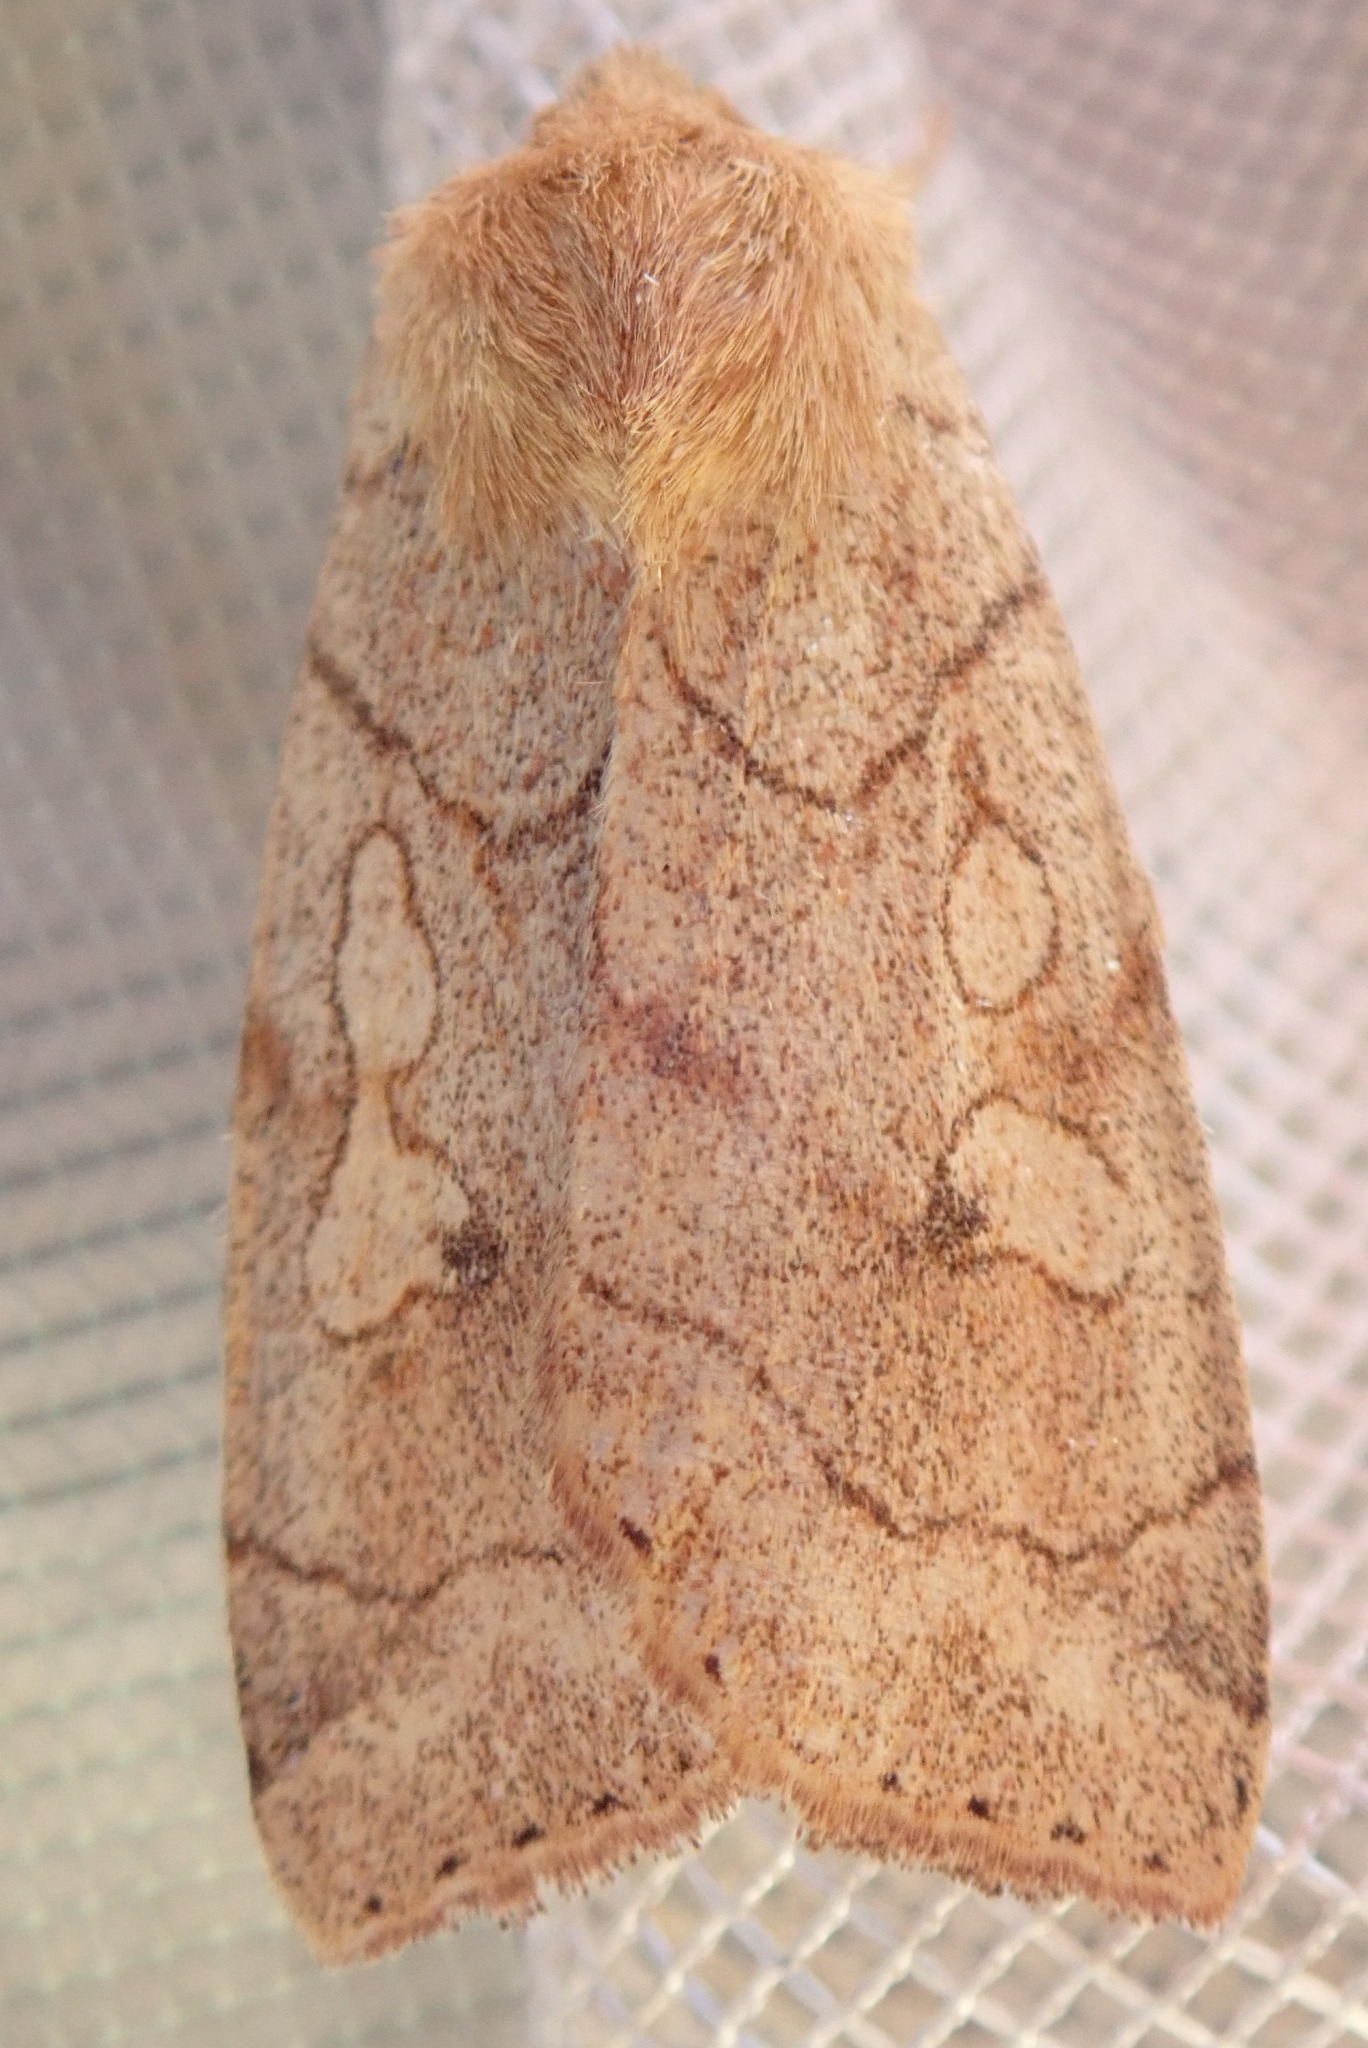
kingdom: Animalia
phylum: Arthropoda
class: Insecta
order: Lepidoptera
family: Noctuidae
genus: Enargia
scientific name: Enargia decolor
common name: Aspen twoleaf tier moth
